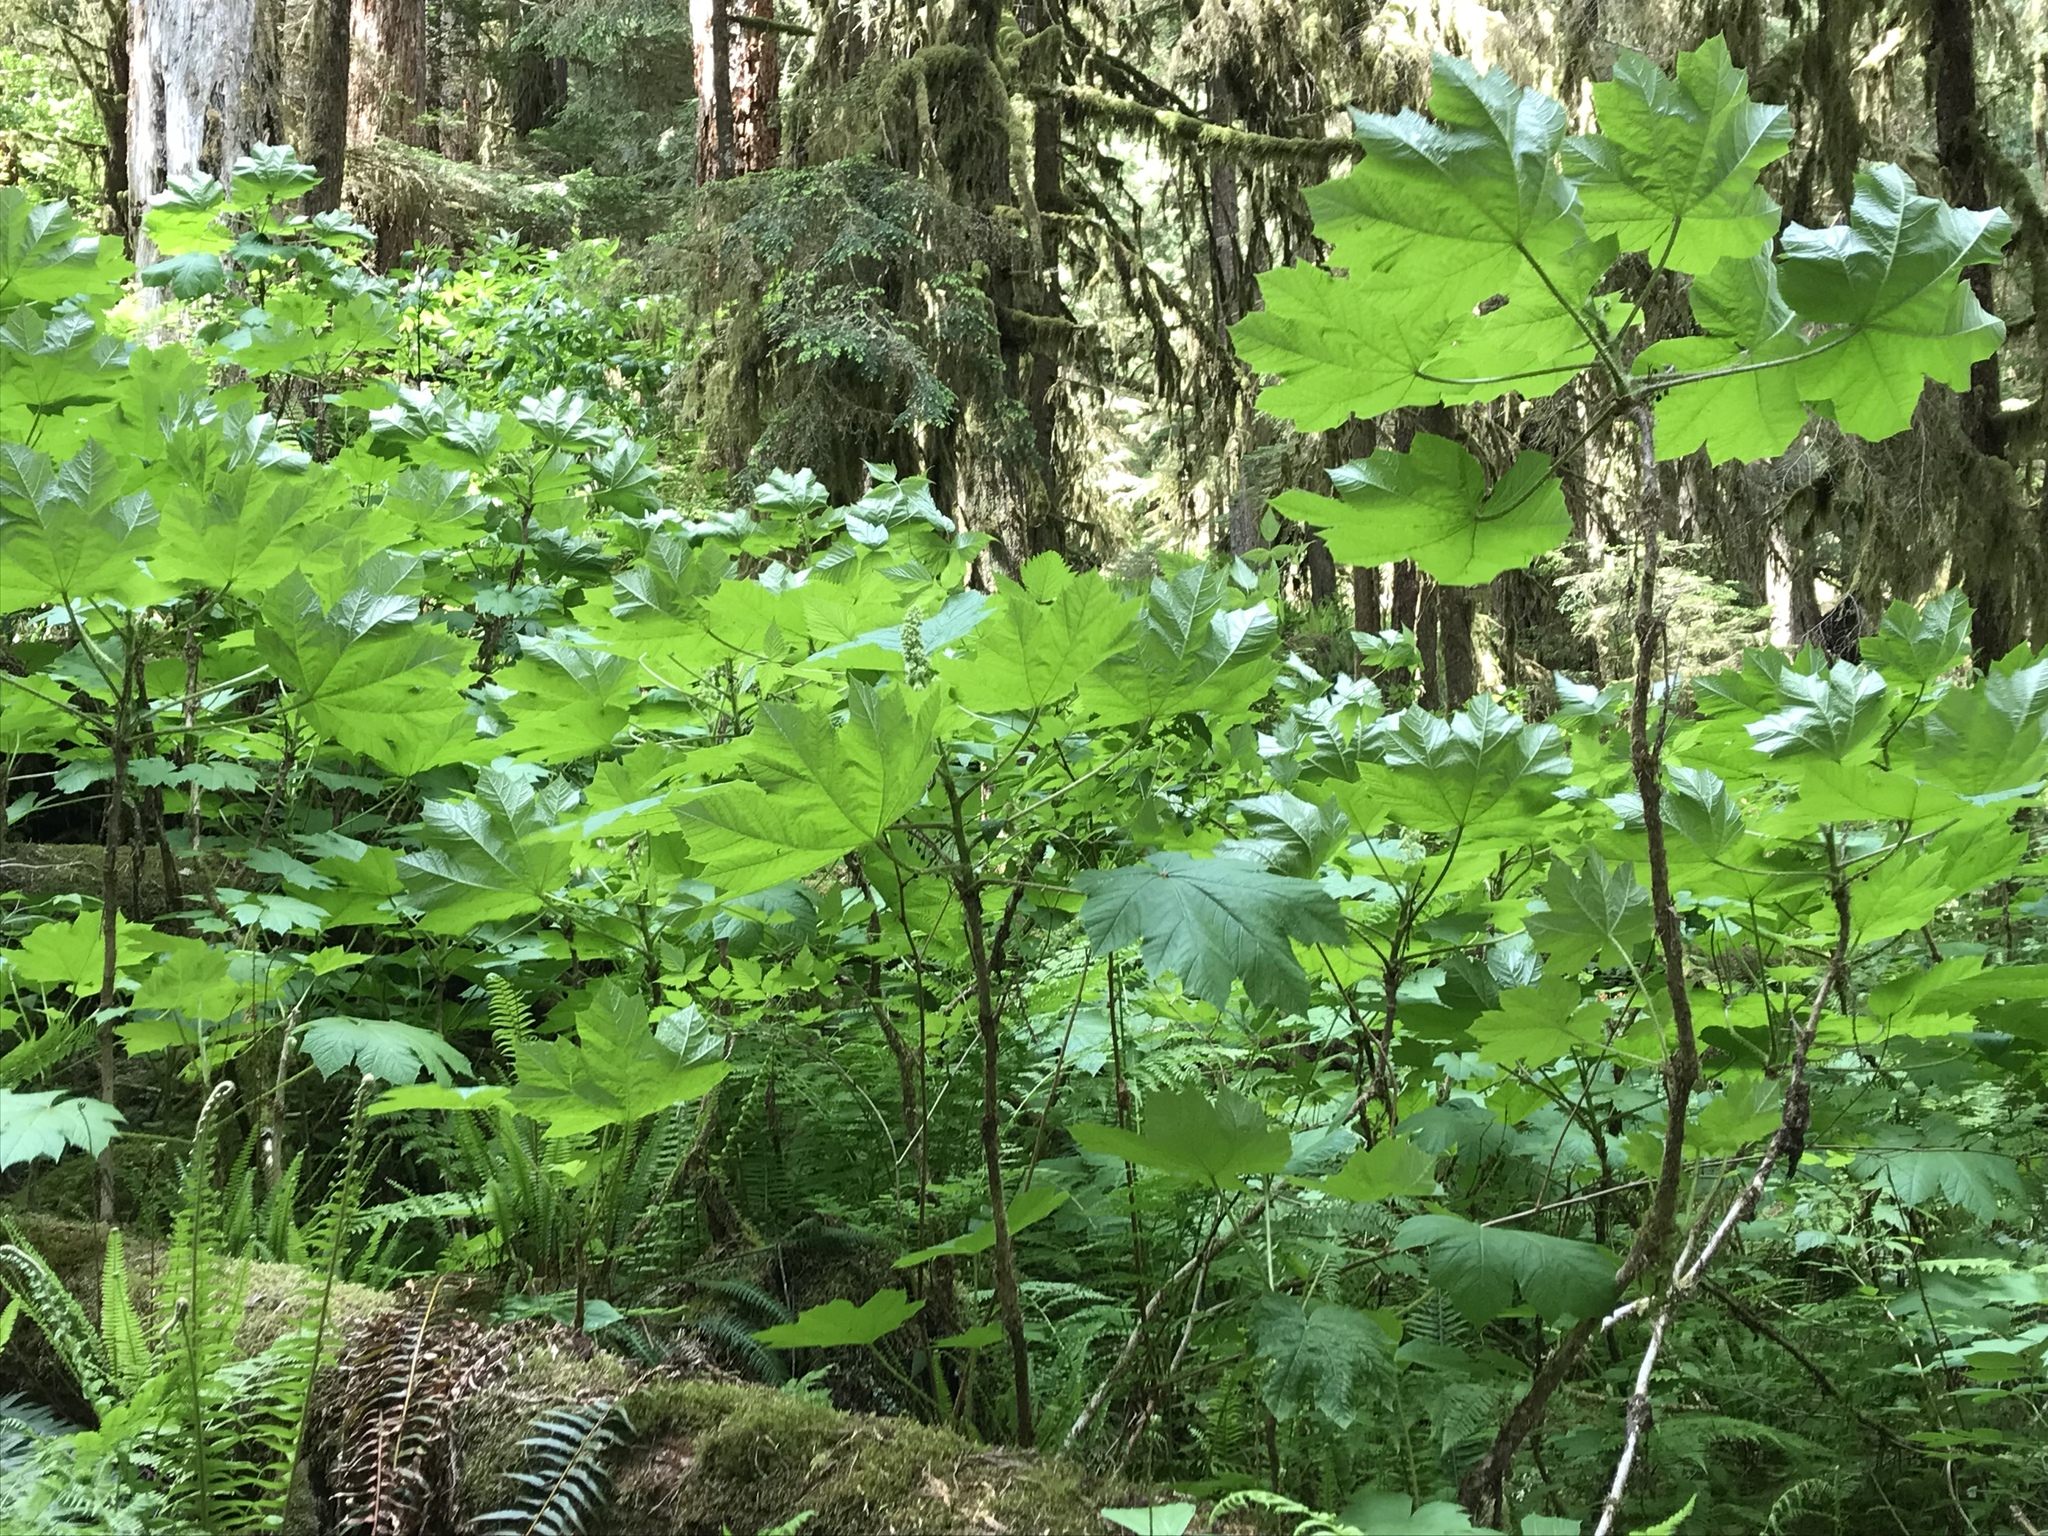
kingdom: Plantae
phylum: Tracheophyta
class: Magnoliopsida
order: Apiales
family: Araliaceae
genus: Oplopanax
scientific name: Oplopanax horridus
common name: Devil's walking-stick
